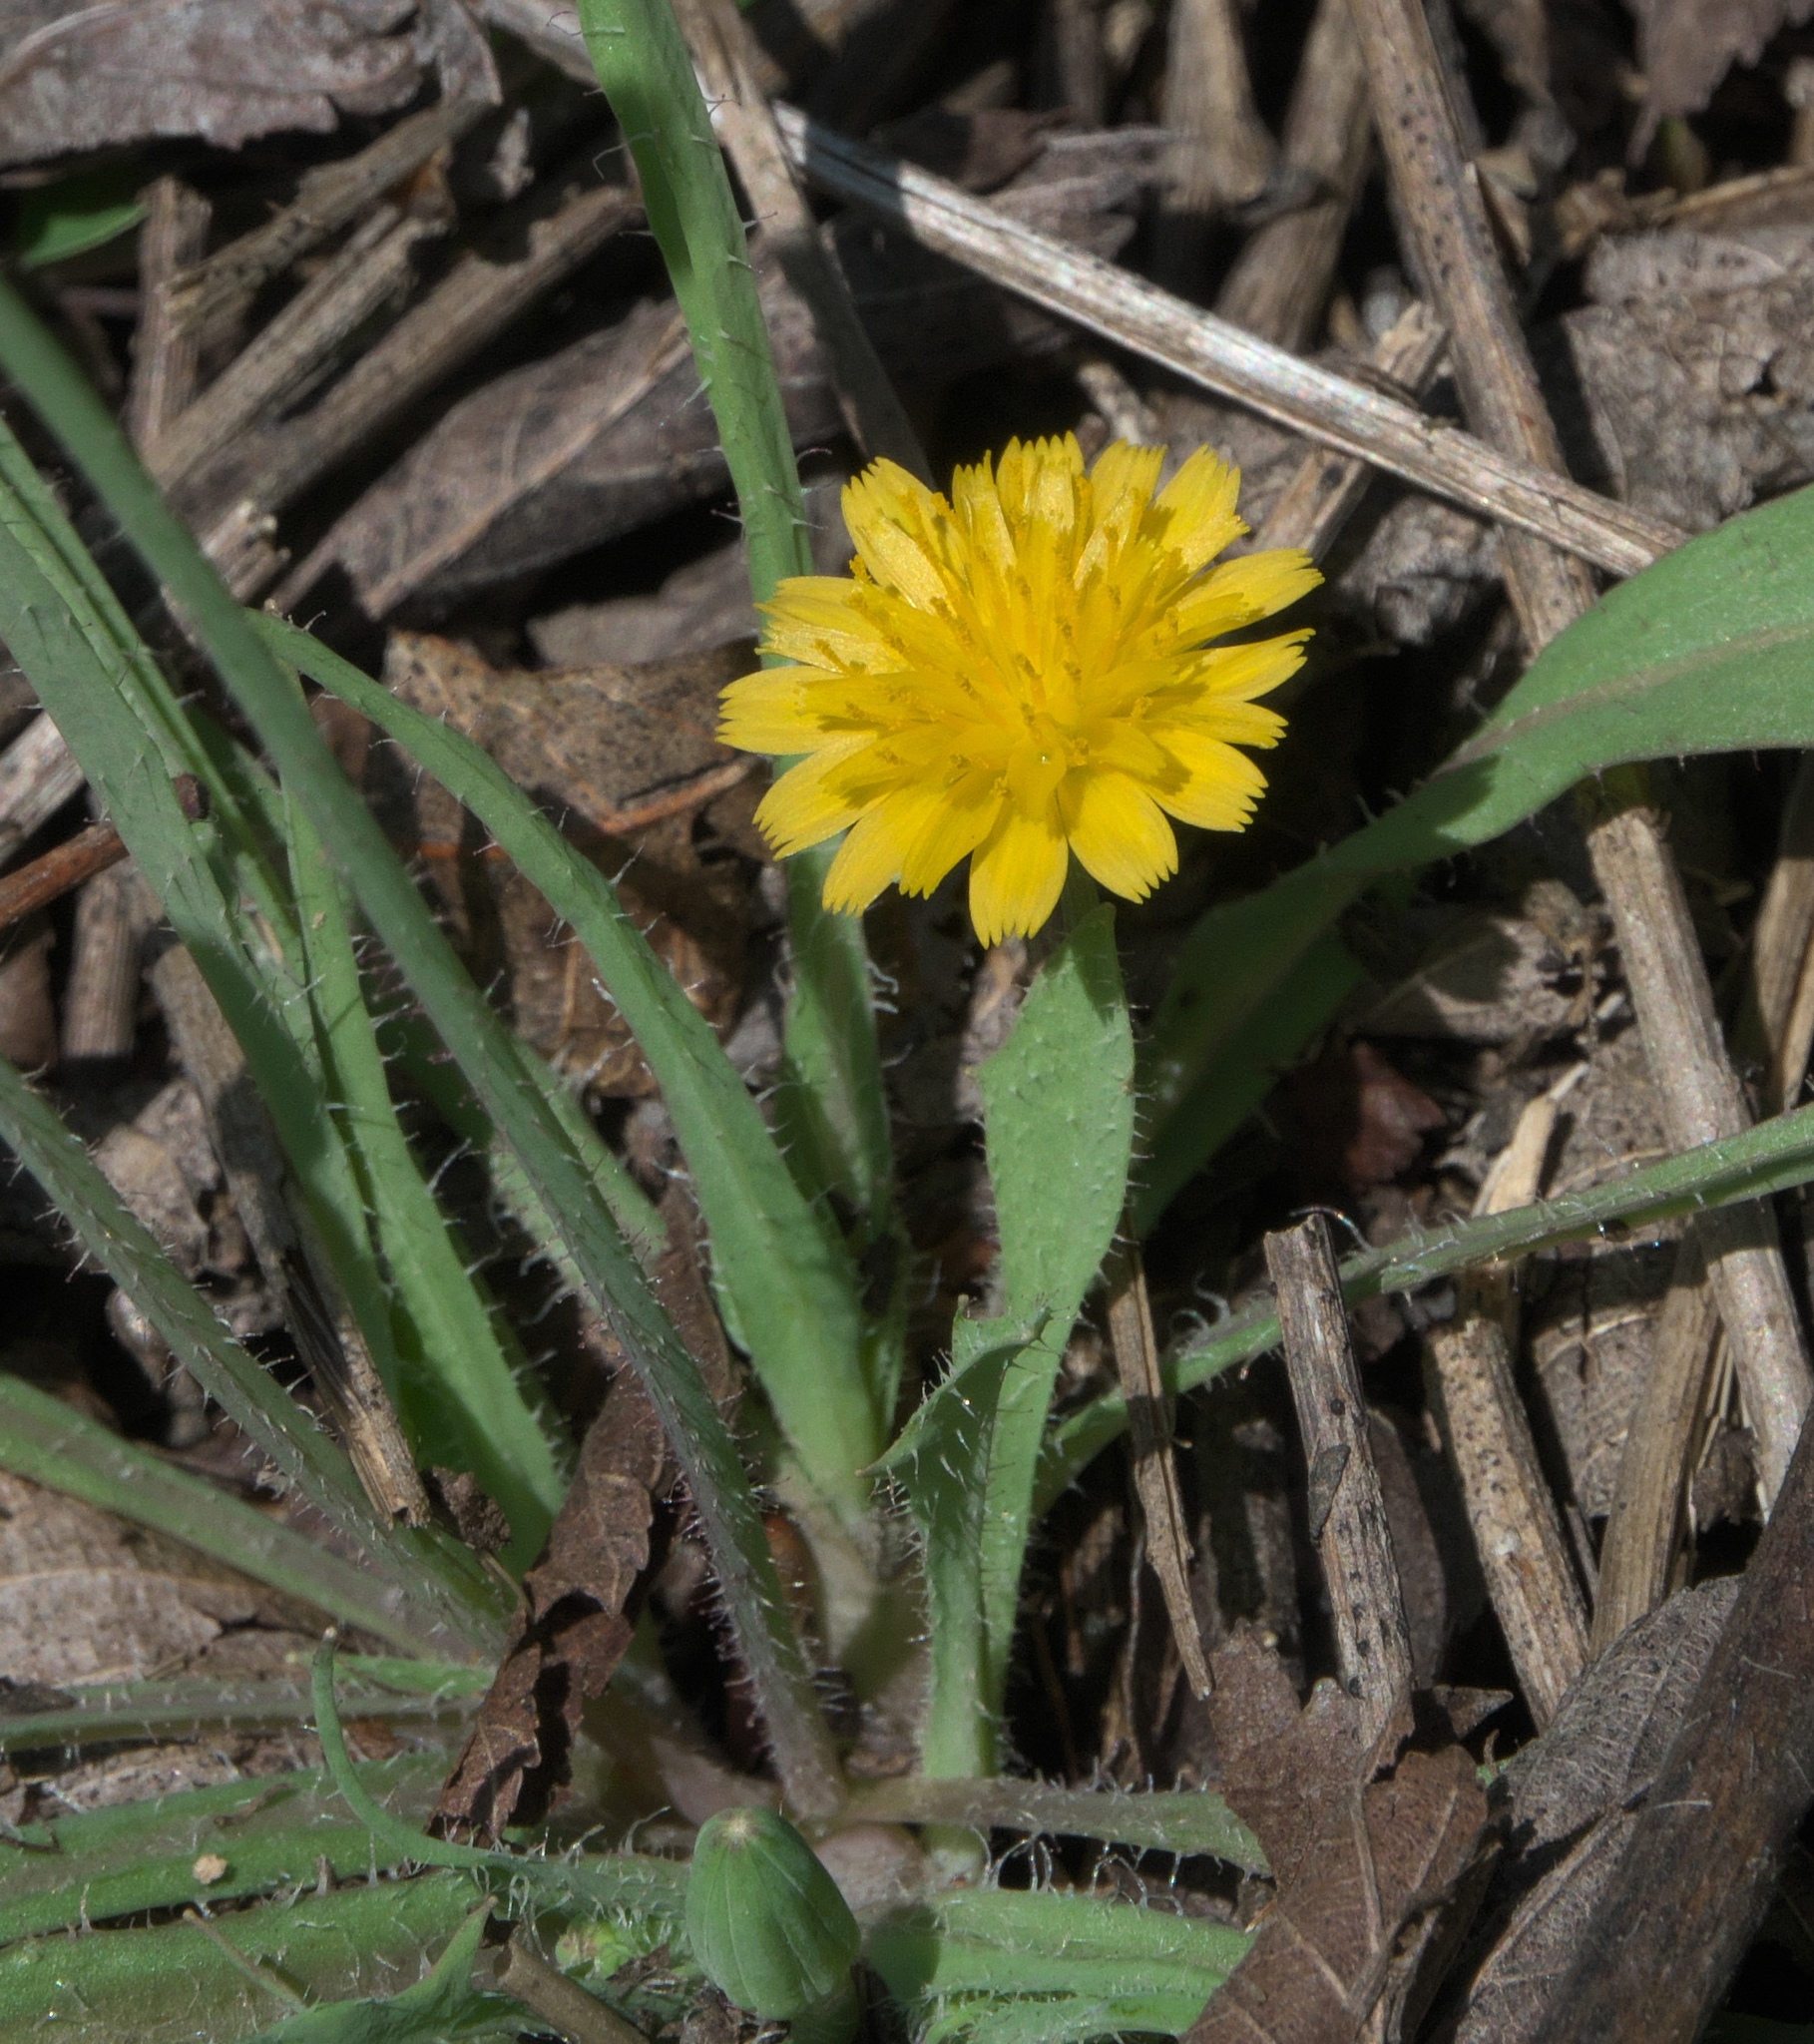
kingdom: Plantae
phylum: Tracheophyta
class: Magnoliopsida
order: Asterales
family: Asteraceae
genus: Krigia
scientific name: Krigia virginica
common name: Virginia dwarf-dandelion
